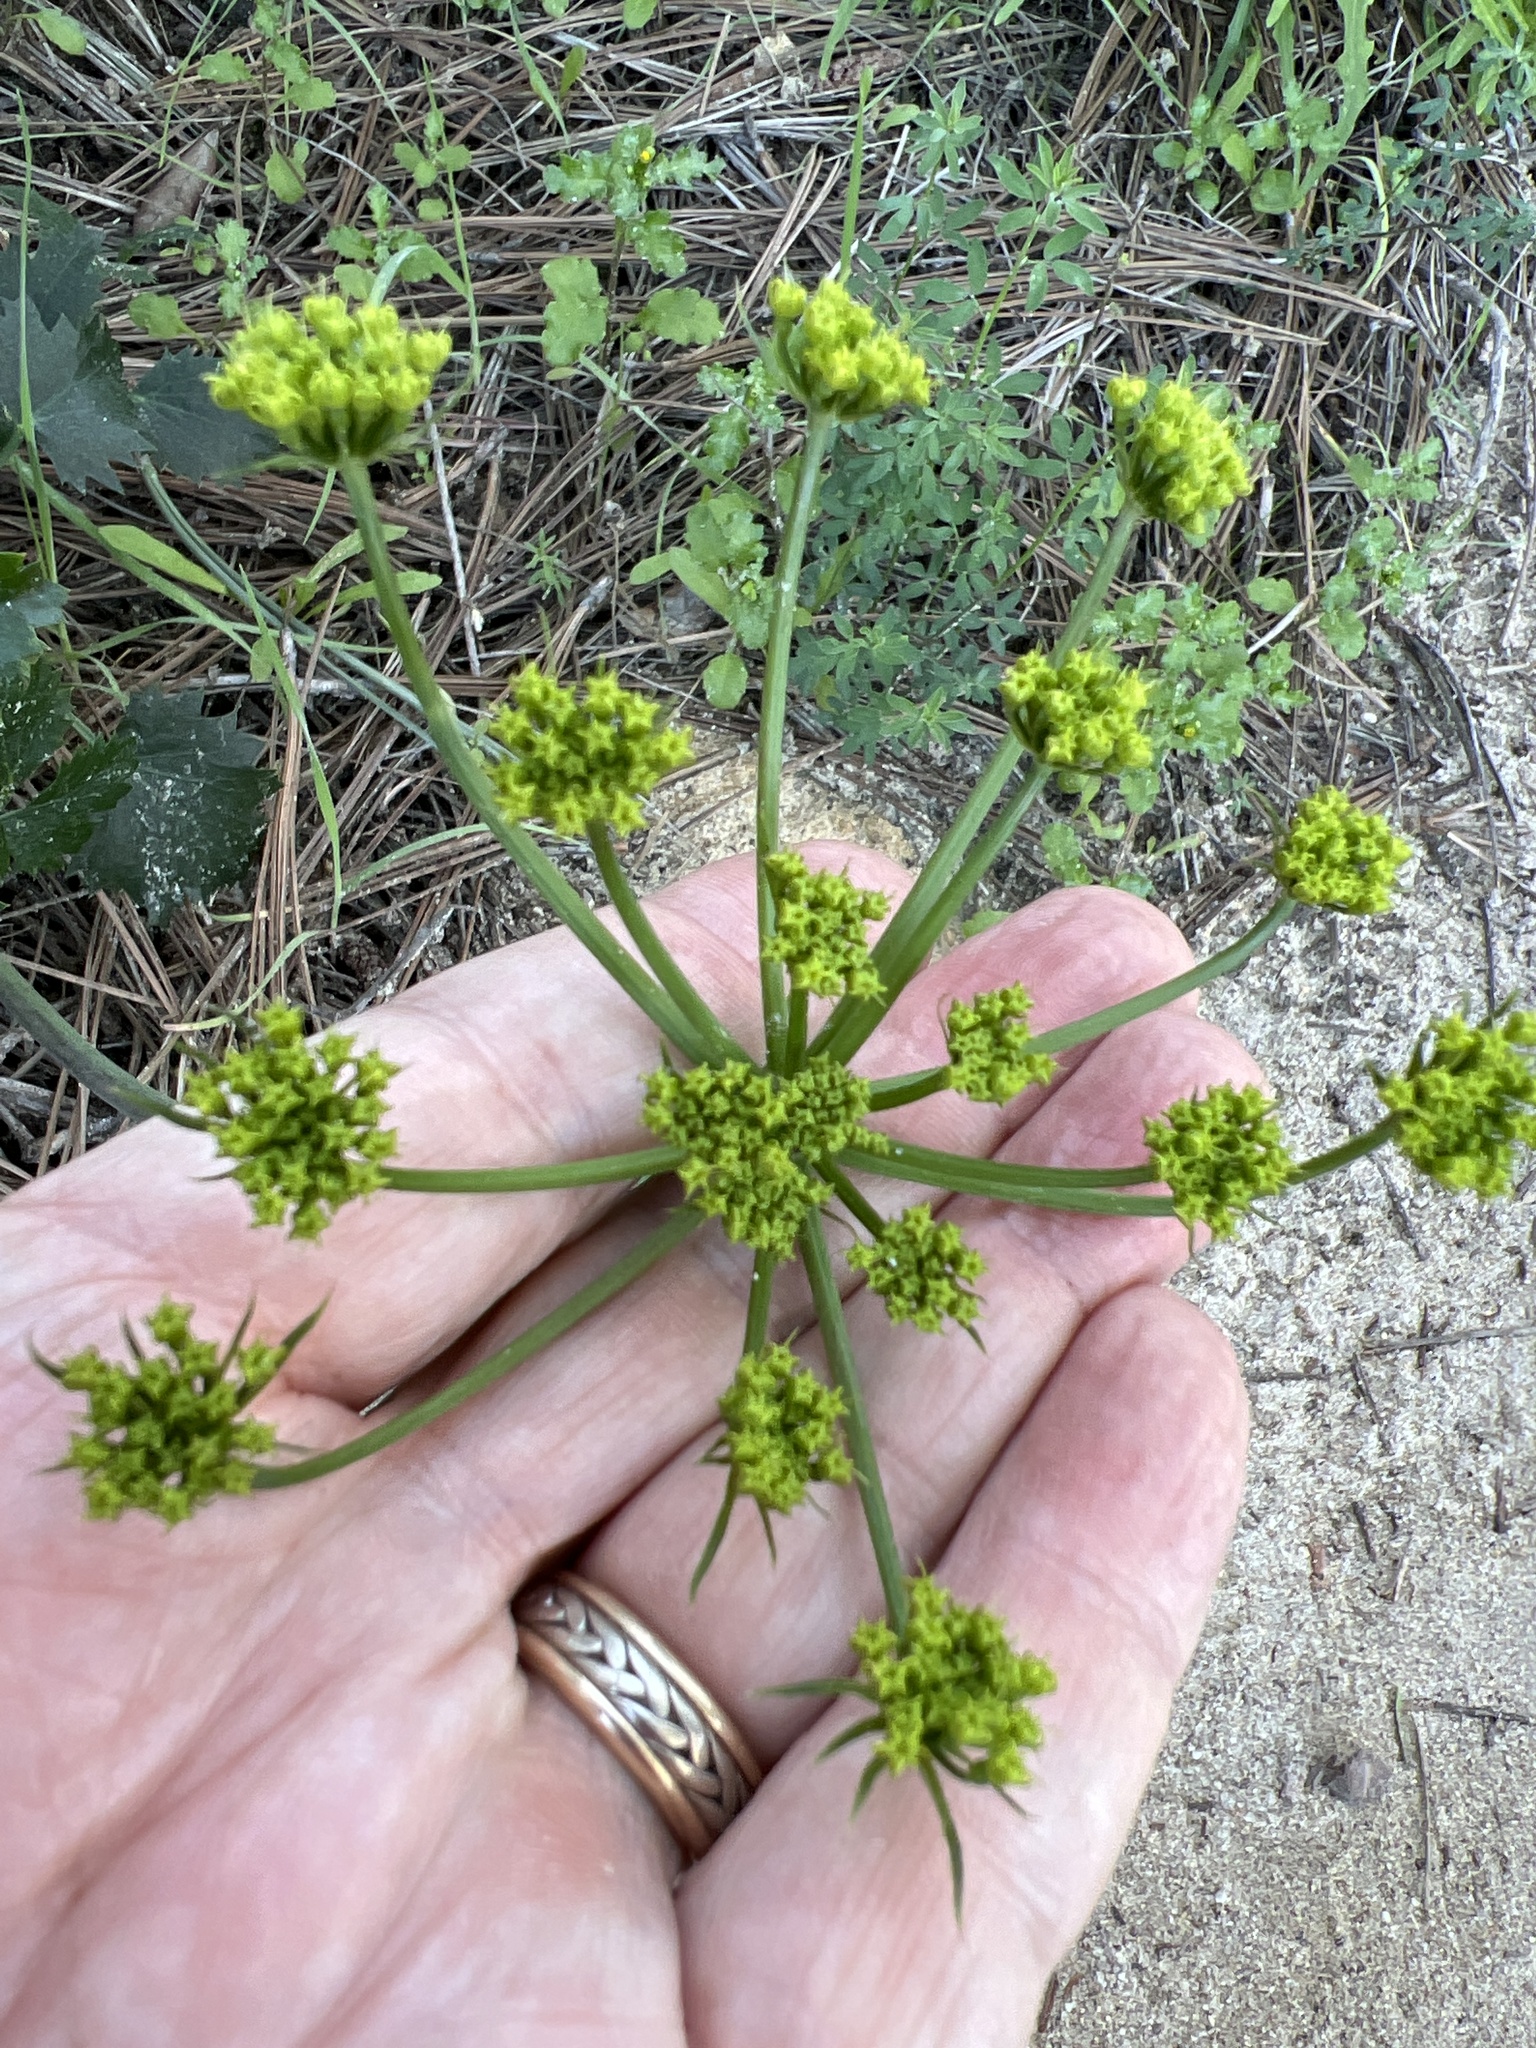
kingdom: Plantae
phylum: Tracheophyta
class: Magnoliopsida
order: Apiales
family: Apiaceae
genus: Lomatium
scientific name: Lomatium lucidum
